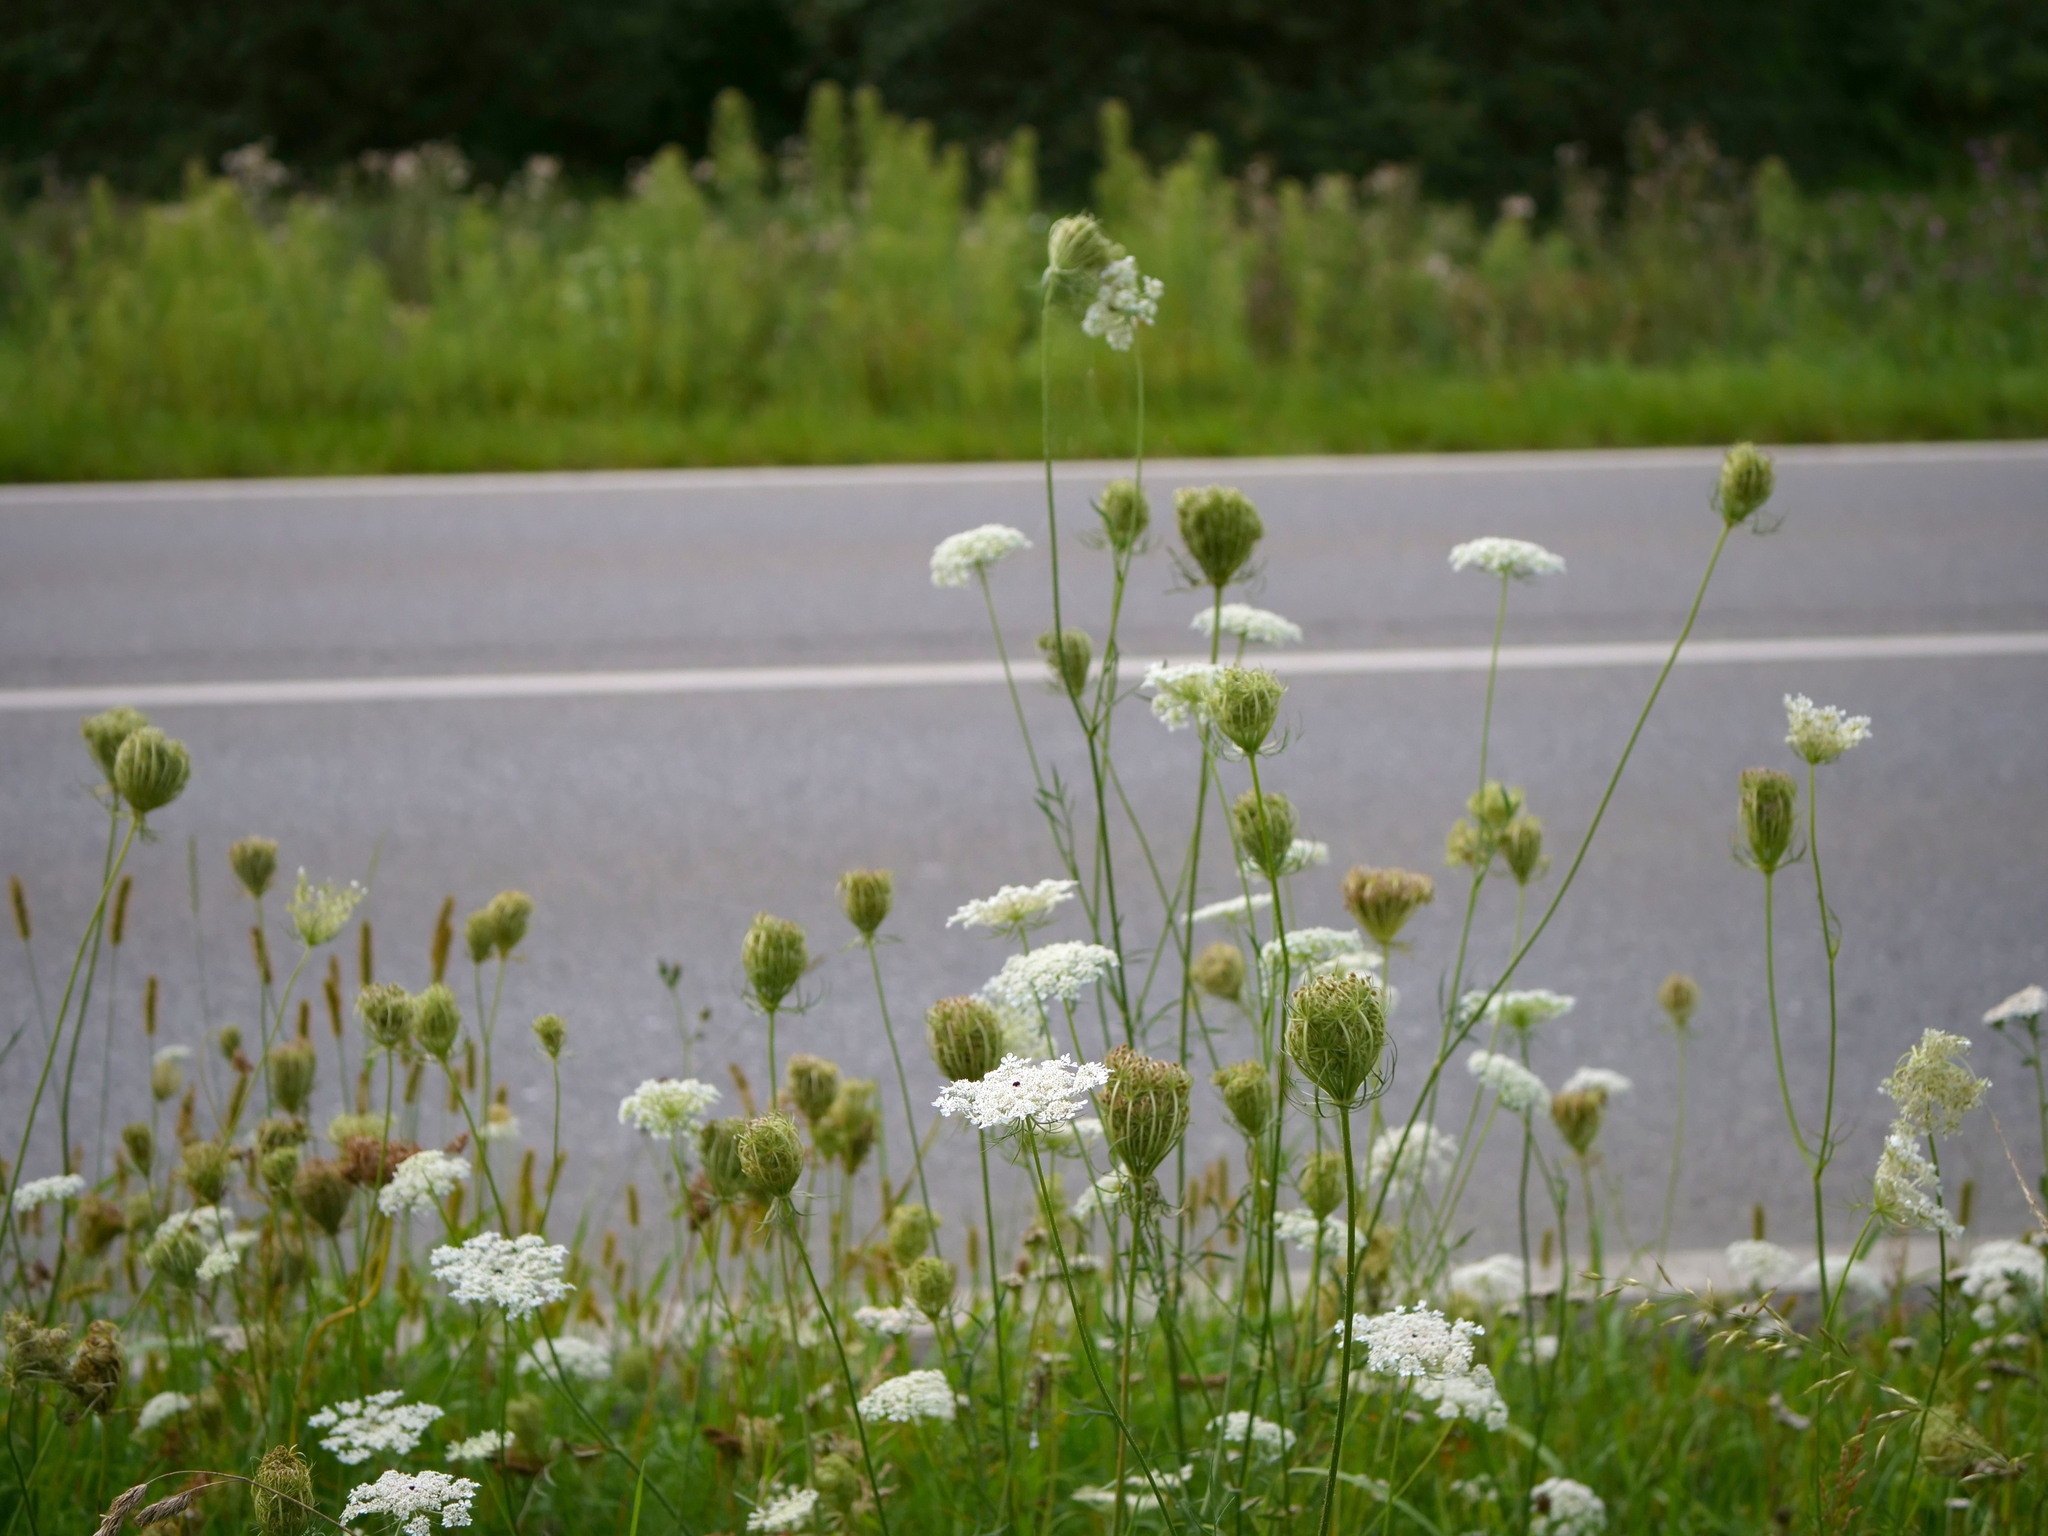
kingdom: Plantae
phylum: Tracheophyta
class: Magnoliopsida
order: Apiales
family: Apiaceae
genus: Daucus
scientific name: Daucus carota
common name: Wild carrot
